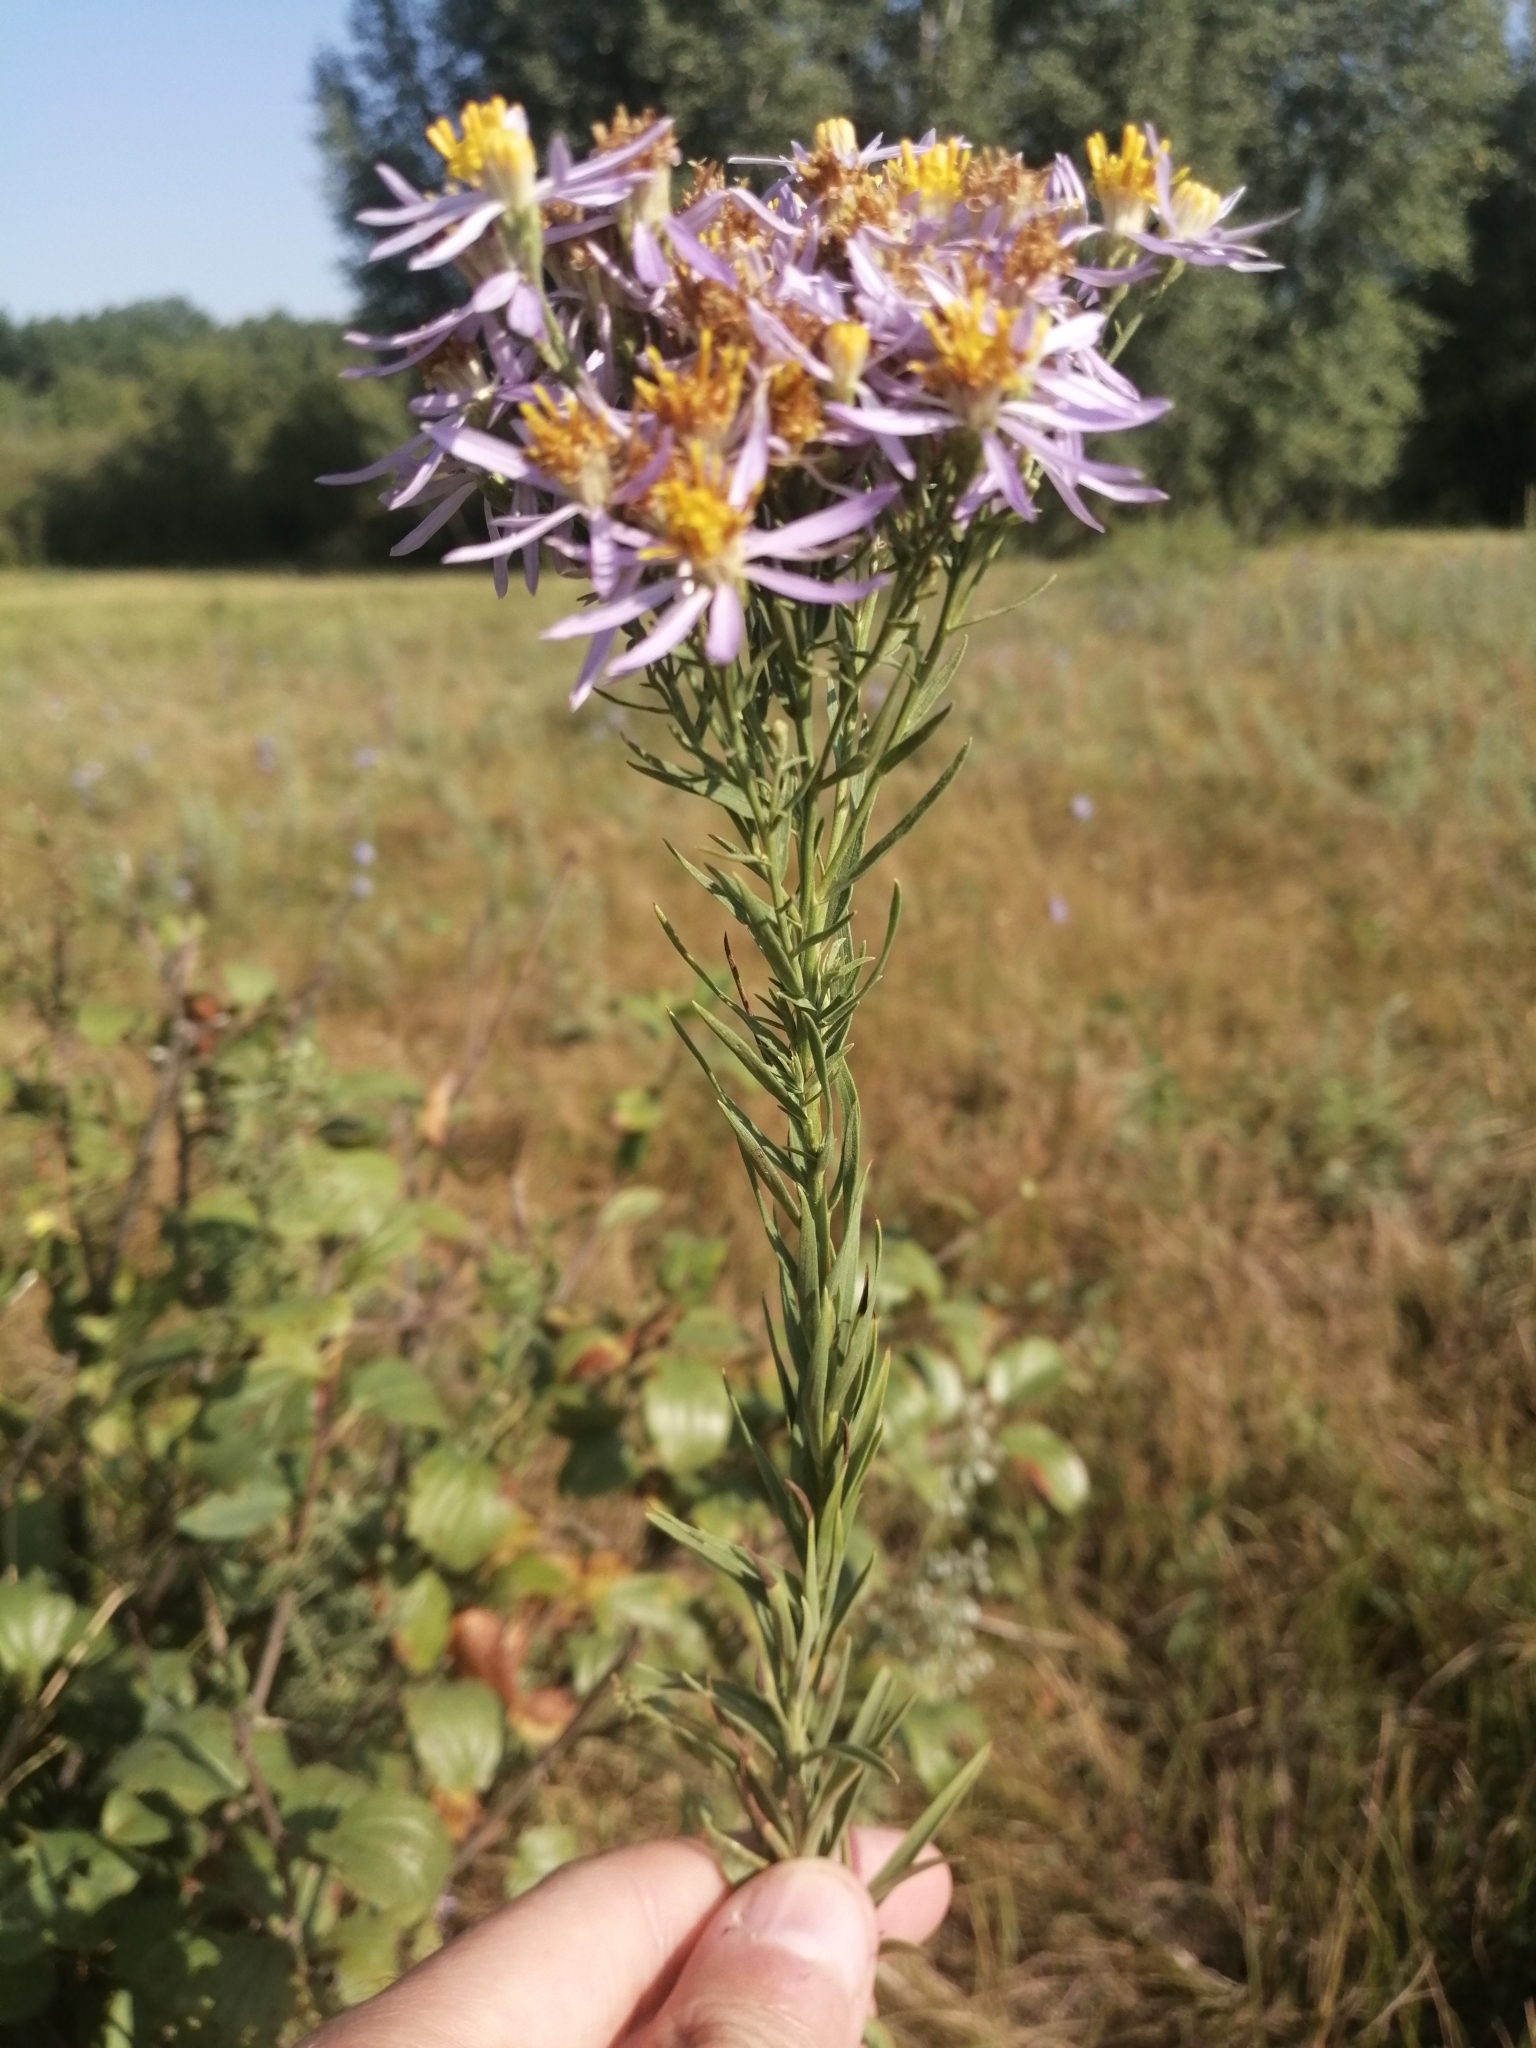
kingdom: Plantae
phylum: Tracheophyta
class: Magnoliopsida
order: Asterales
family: Asteraceae
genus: Galatella
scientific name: Galatella sedifolia
